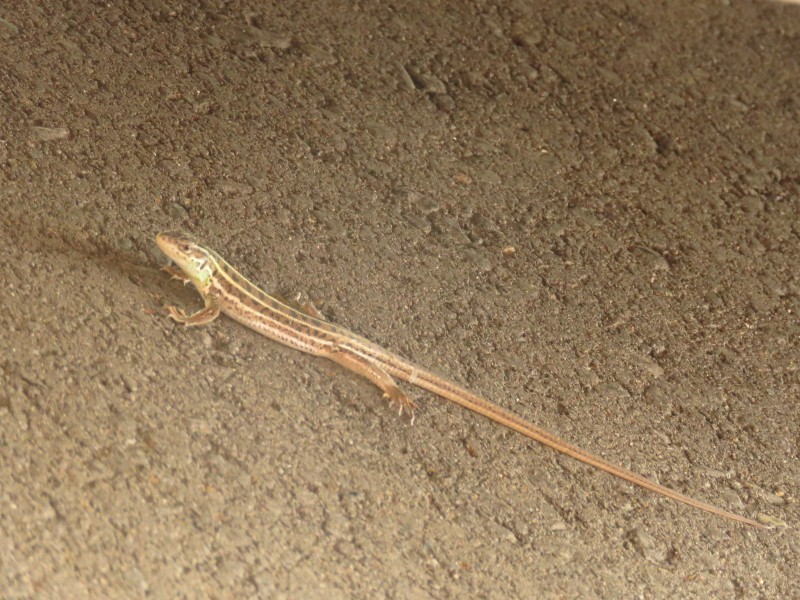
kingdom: Animalia
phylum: Chordata
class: Squamata
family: Lacertidae
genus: Lacerta
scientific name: Lacerta strigata
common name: Caspian green lizard
